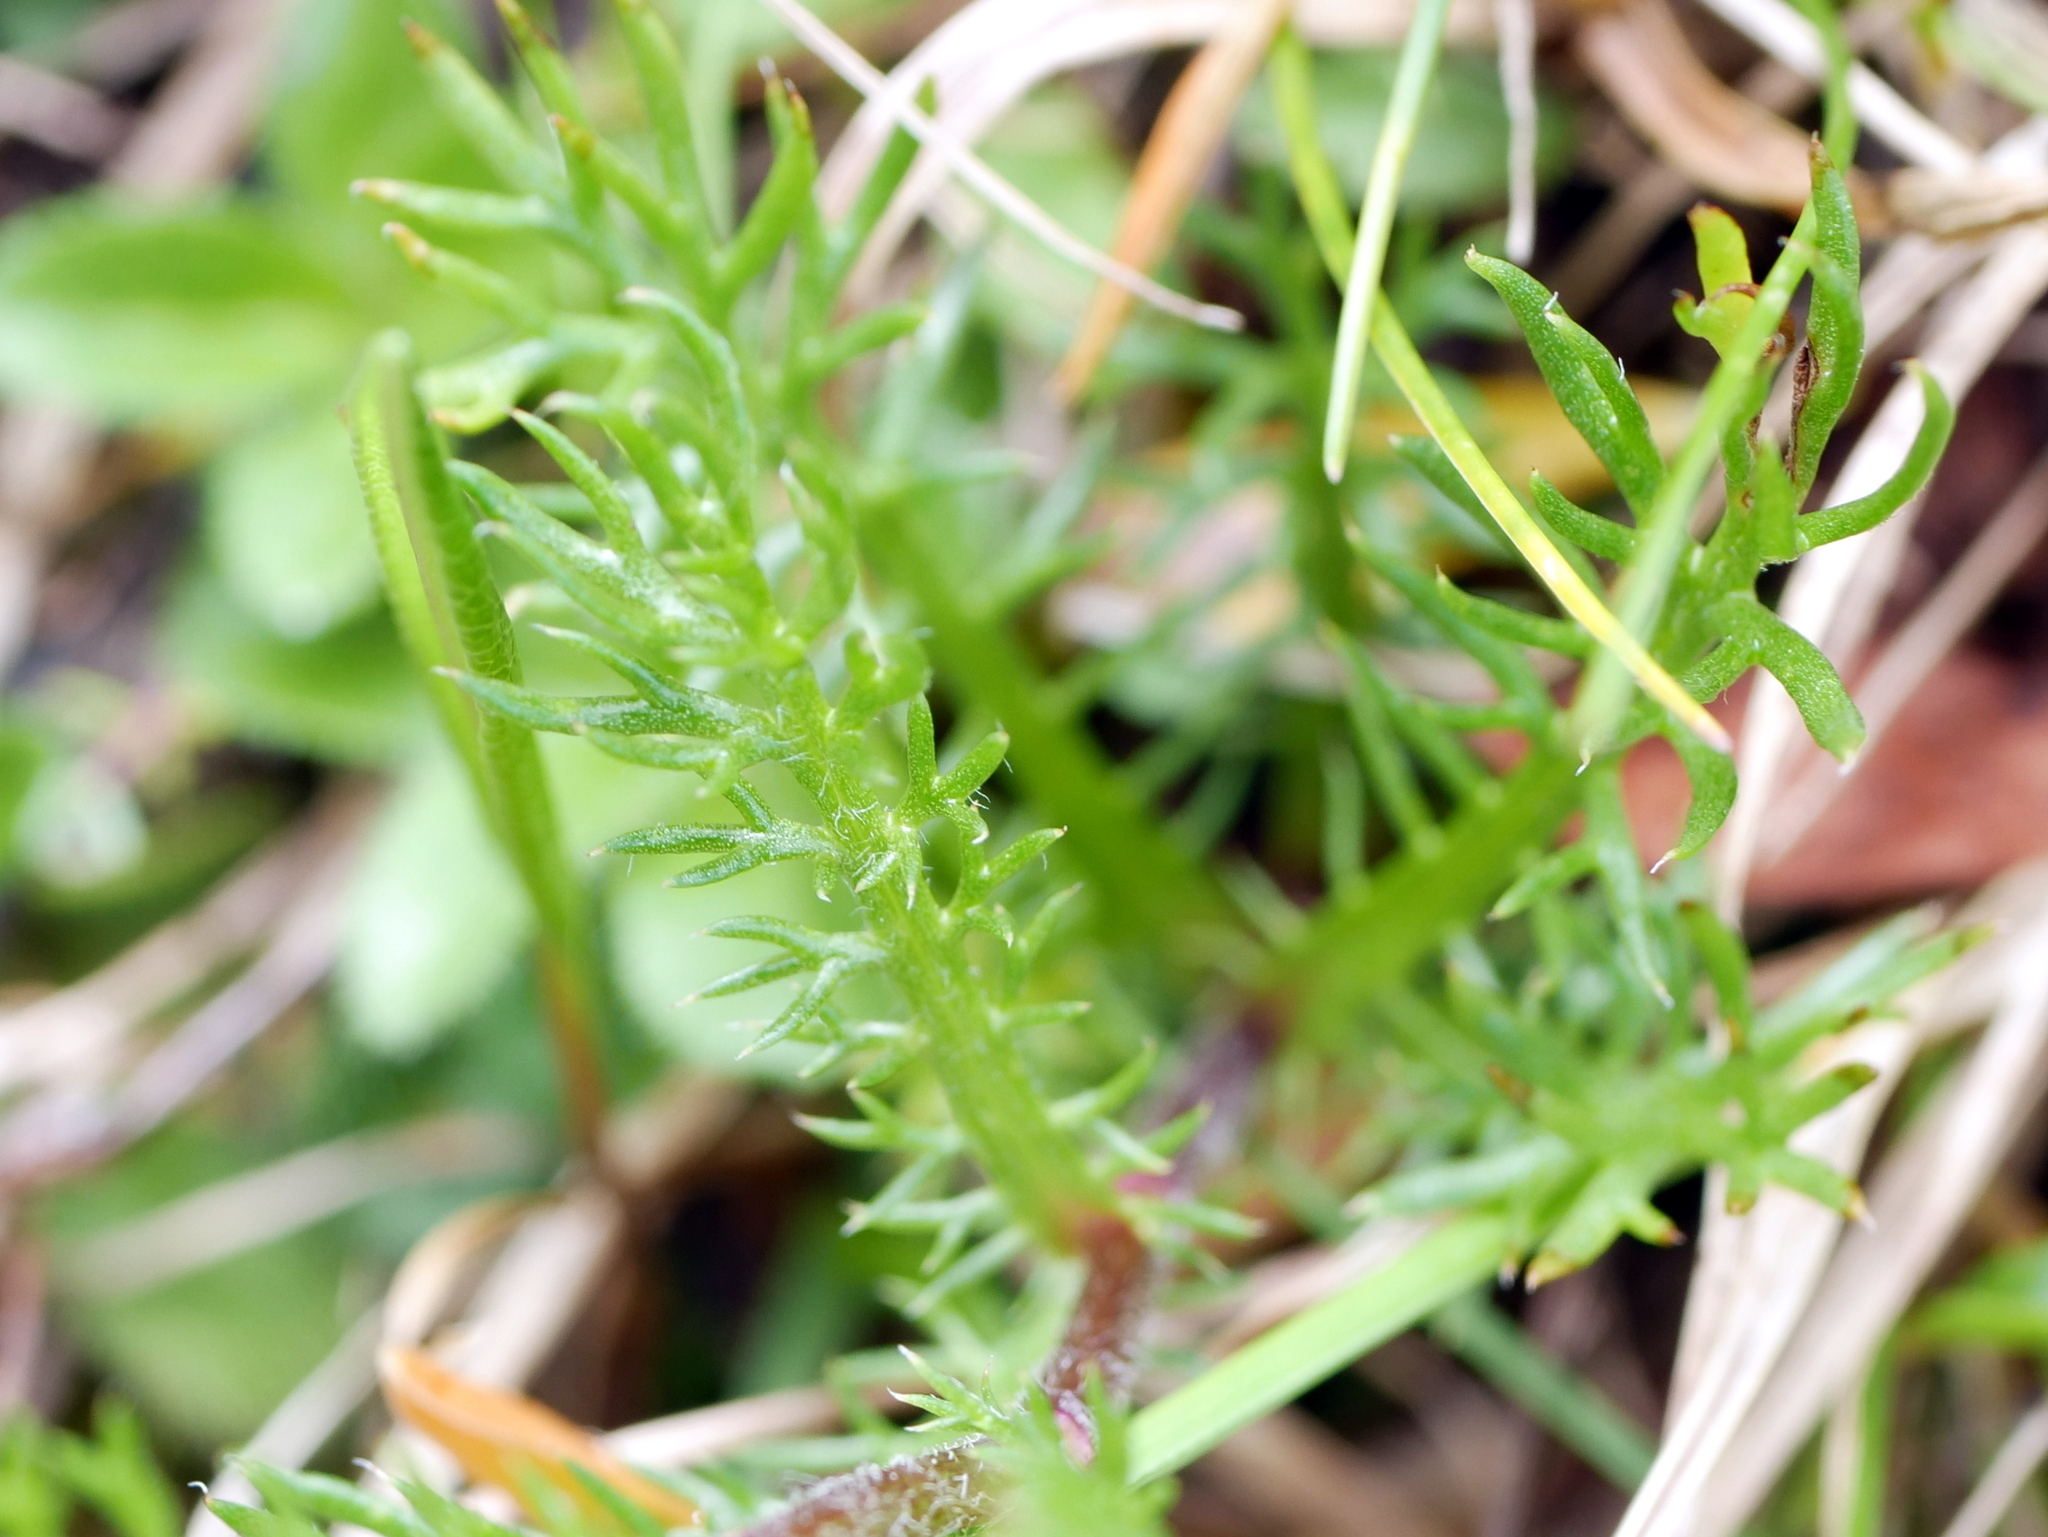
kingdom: Plantae
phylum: Tracheophyta
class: Magnoliopsida
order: Asterales
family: Asteraceae
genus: Achillea
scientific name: Achillea atrata
